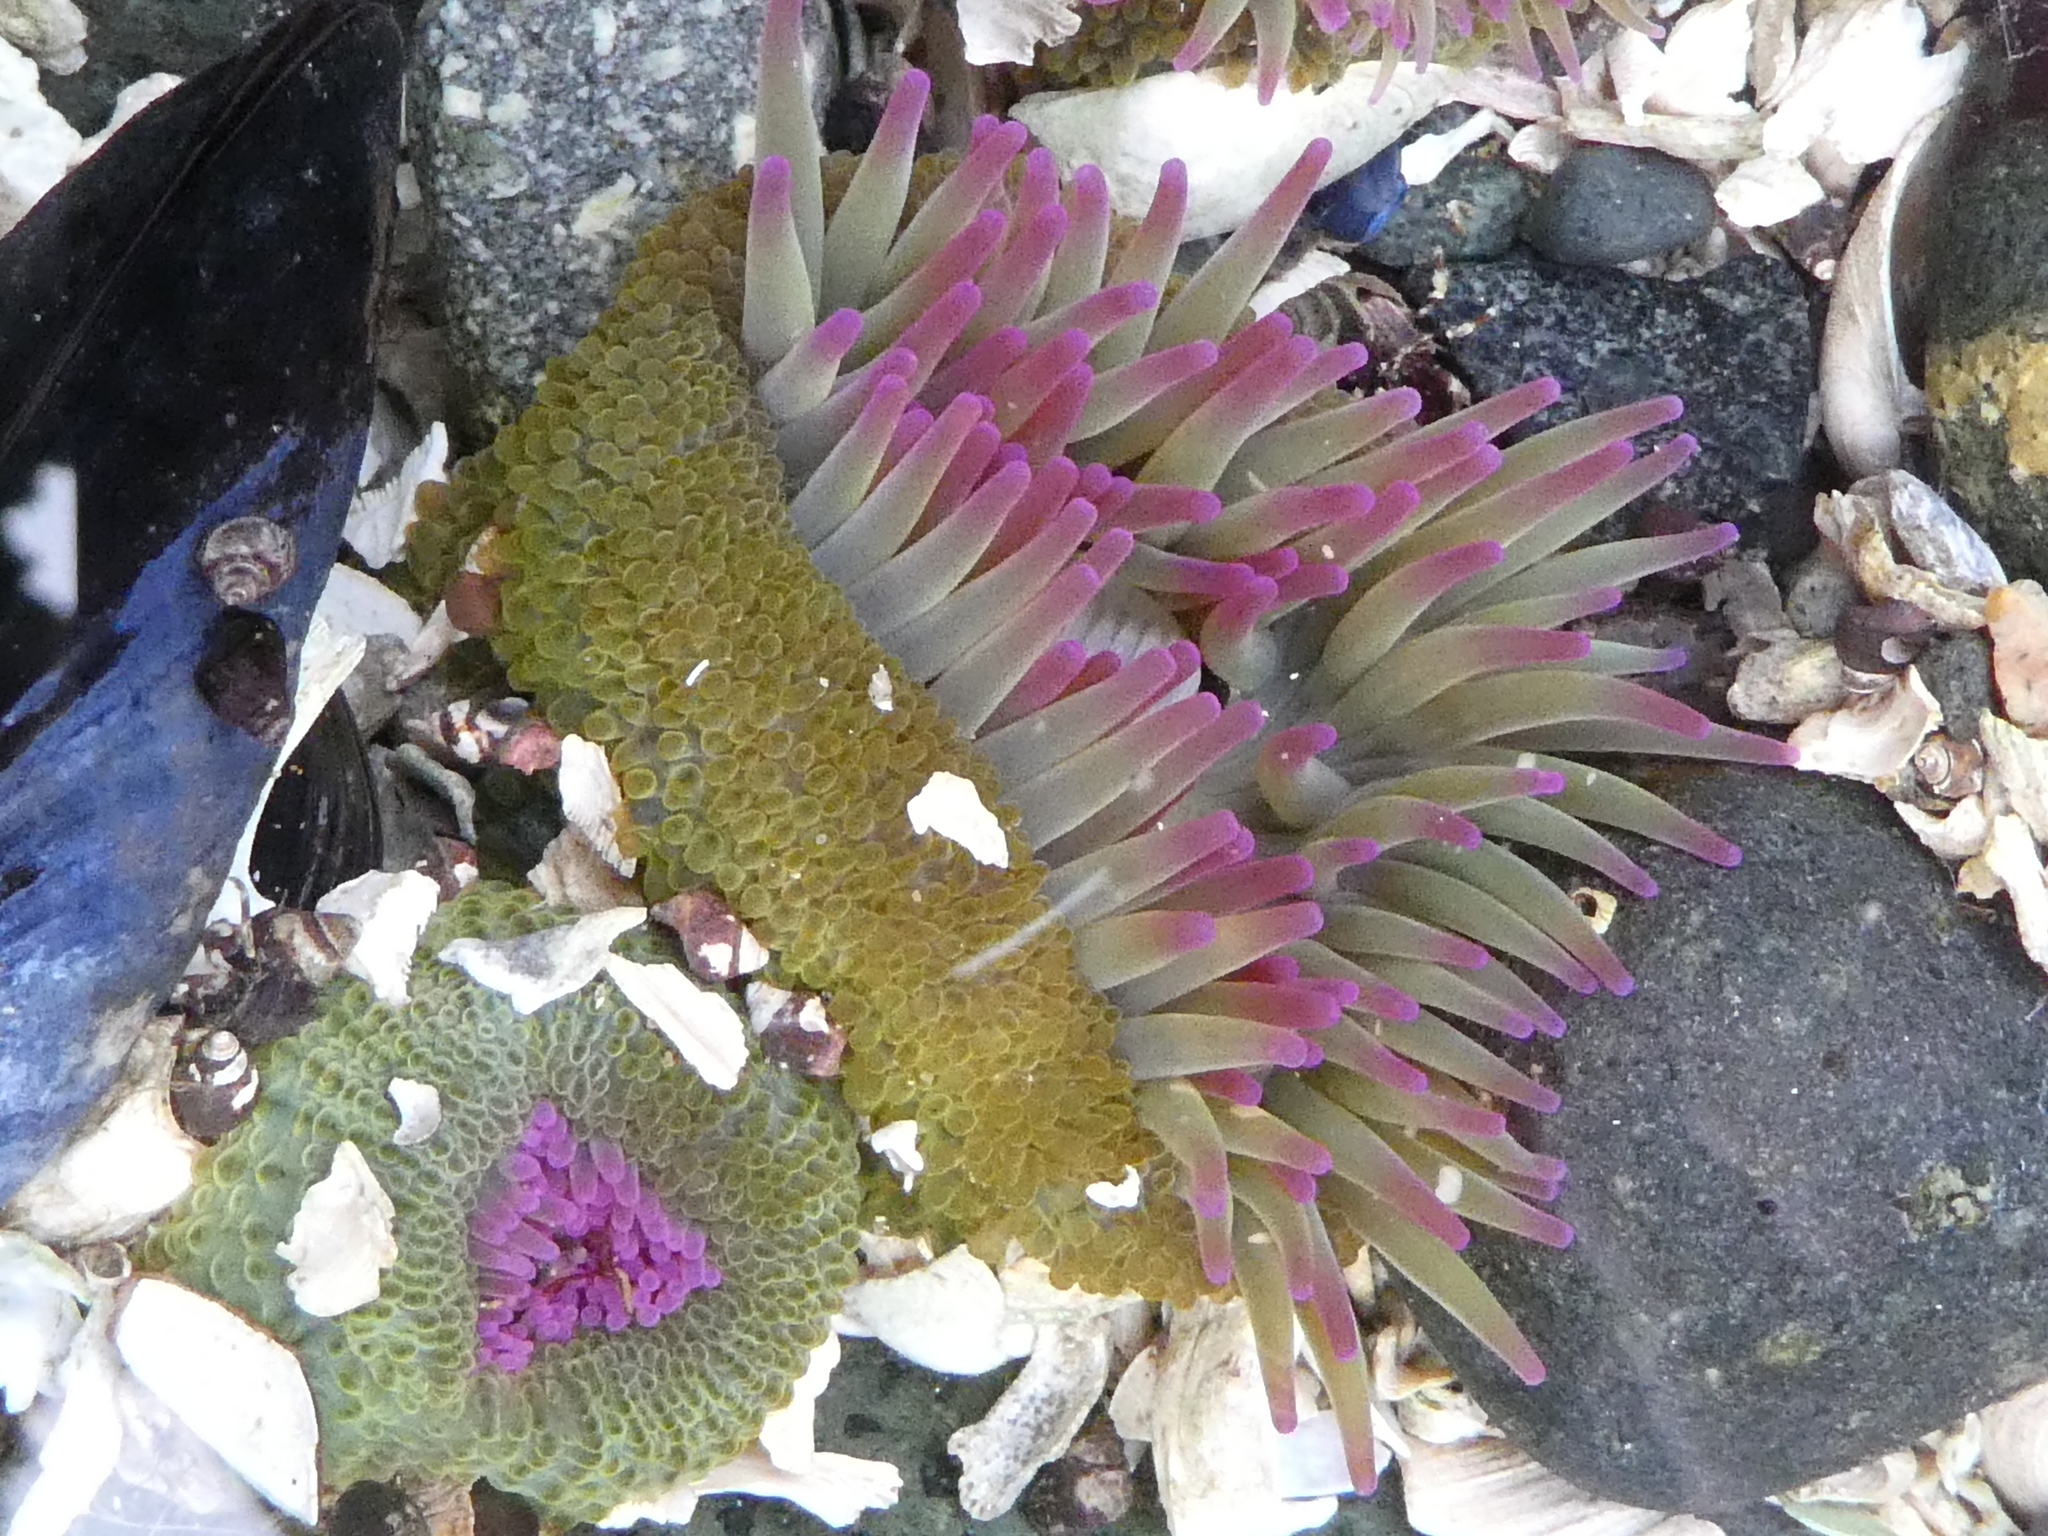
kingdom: Animalia
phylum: Cnidaria
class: Anthozoa
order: Actiniaria
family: Actiniidae
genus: Anthopleura
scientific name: Anthopleura elegantissima
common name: Clonal anemone
